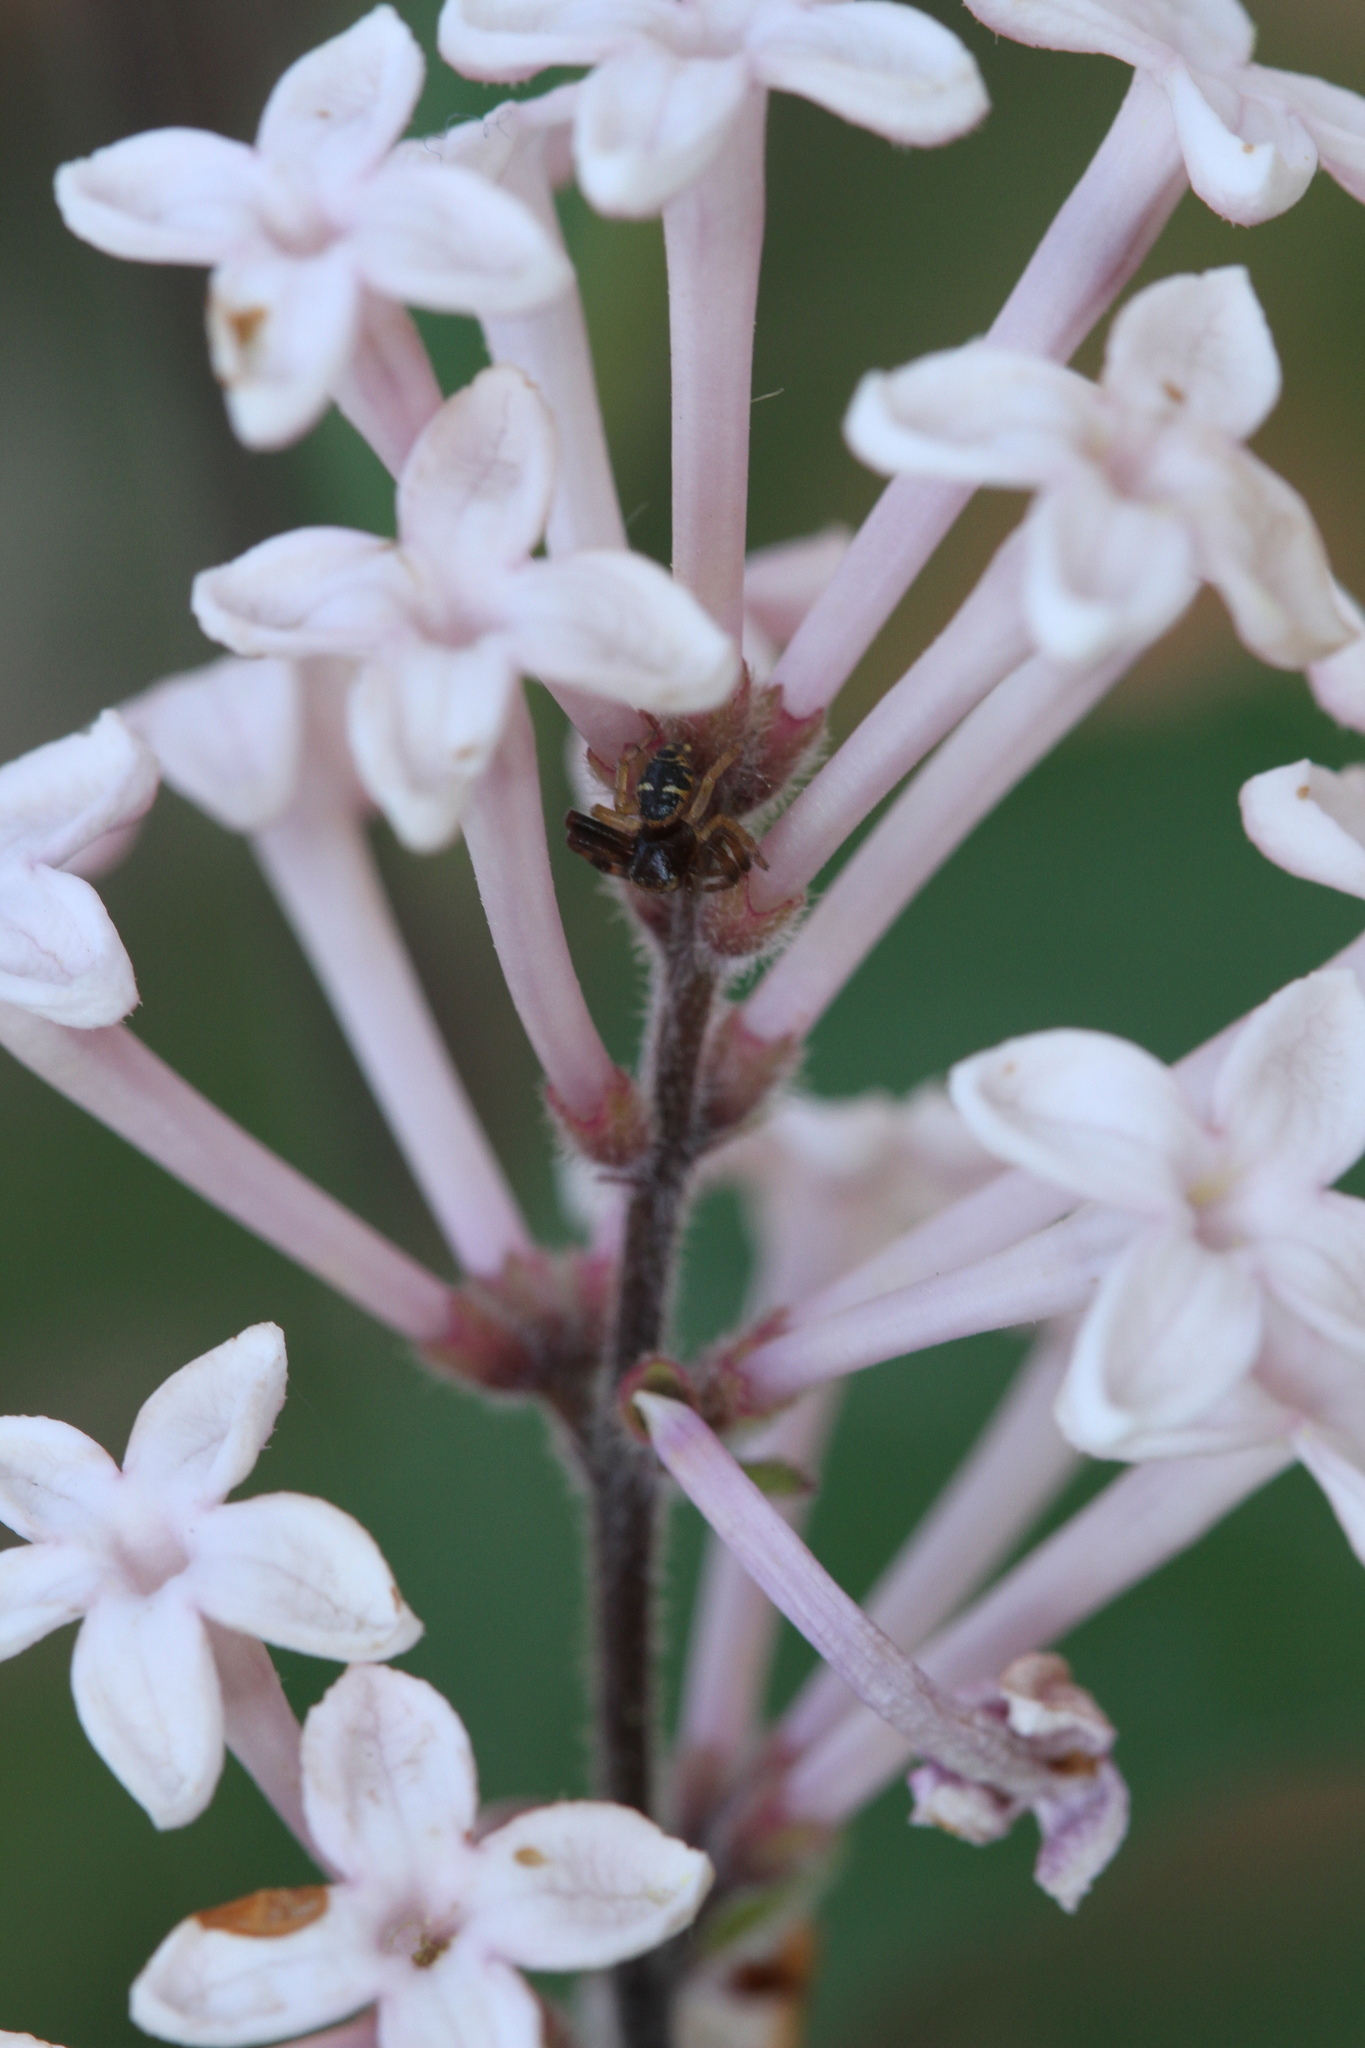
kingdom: Animalia
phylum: Arthropoda
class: Arachnida
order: Araneae
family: Thomisidae
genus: Synema
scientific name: Synema globosum
